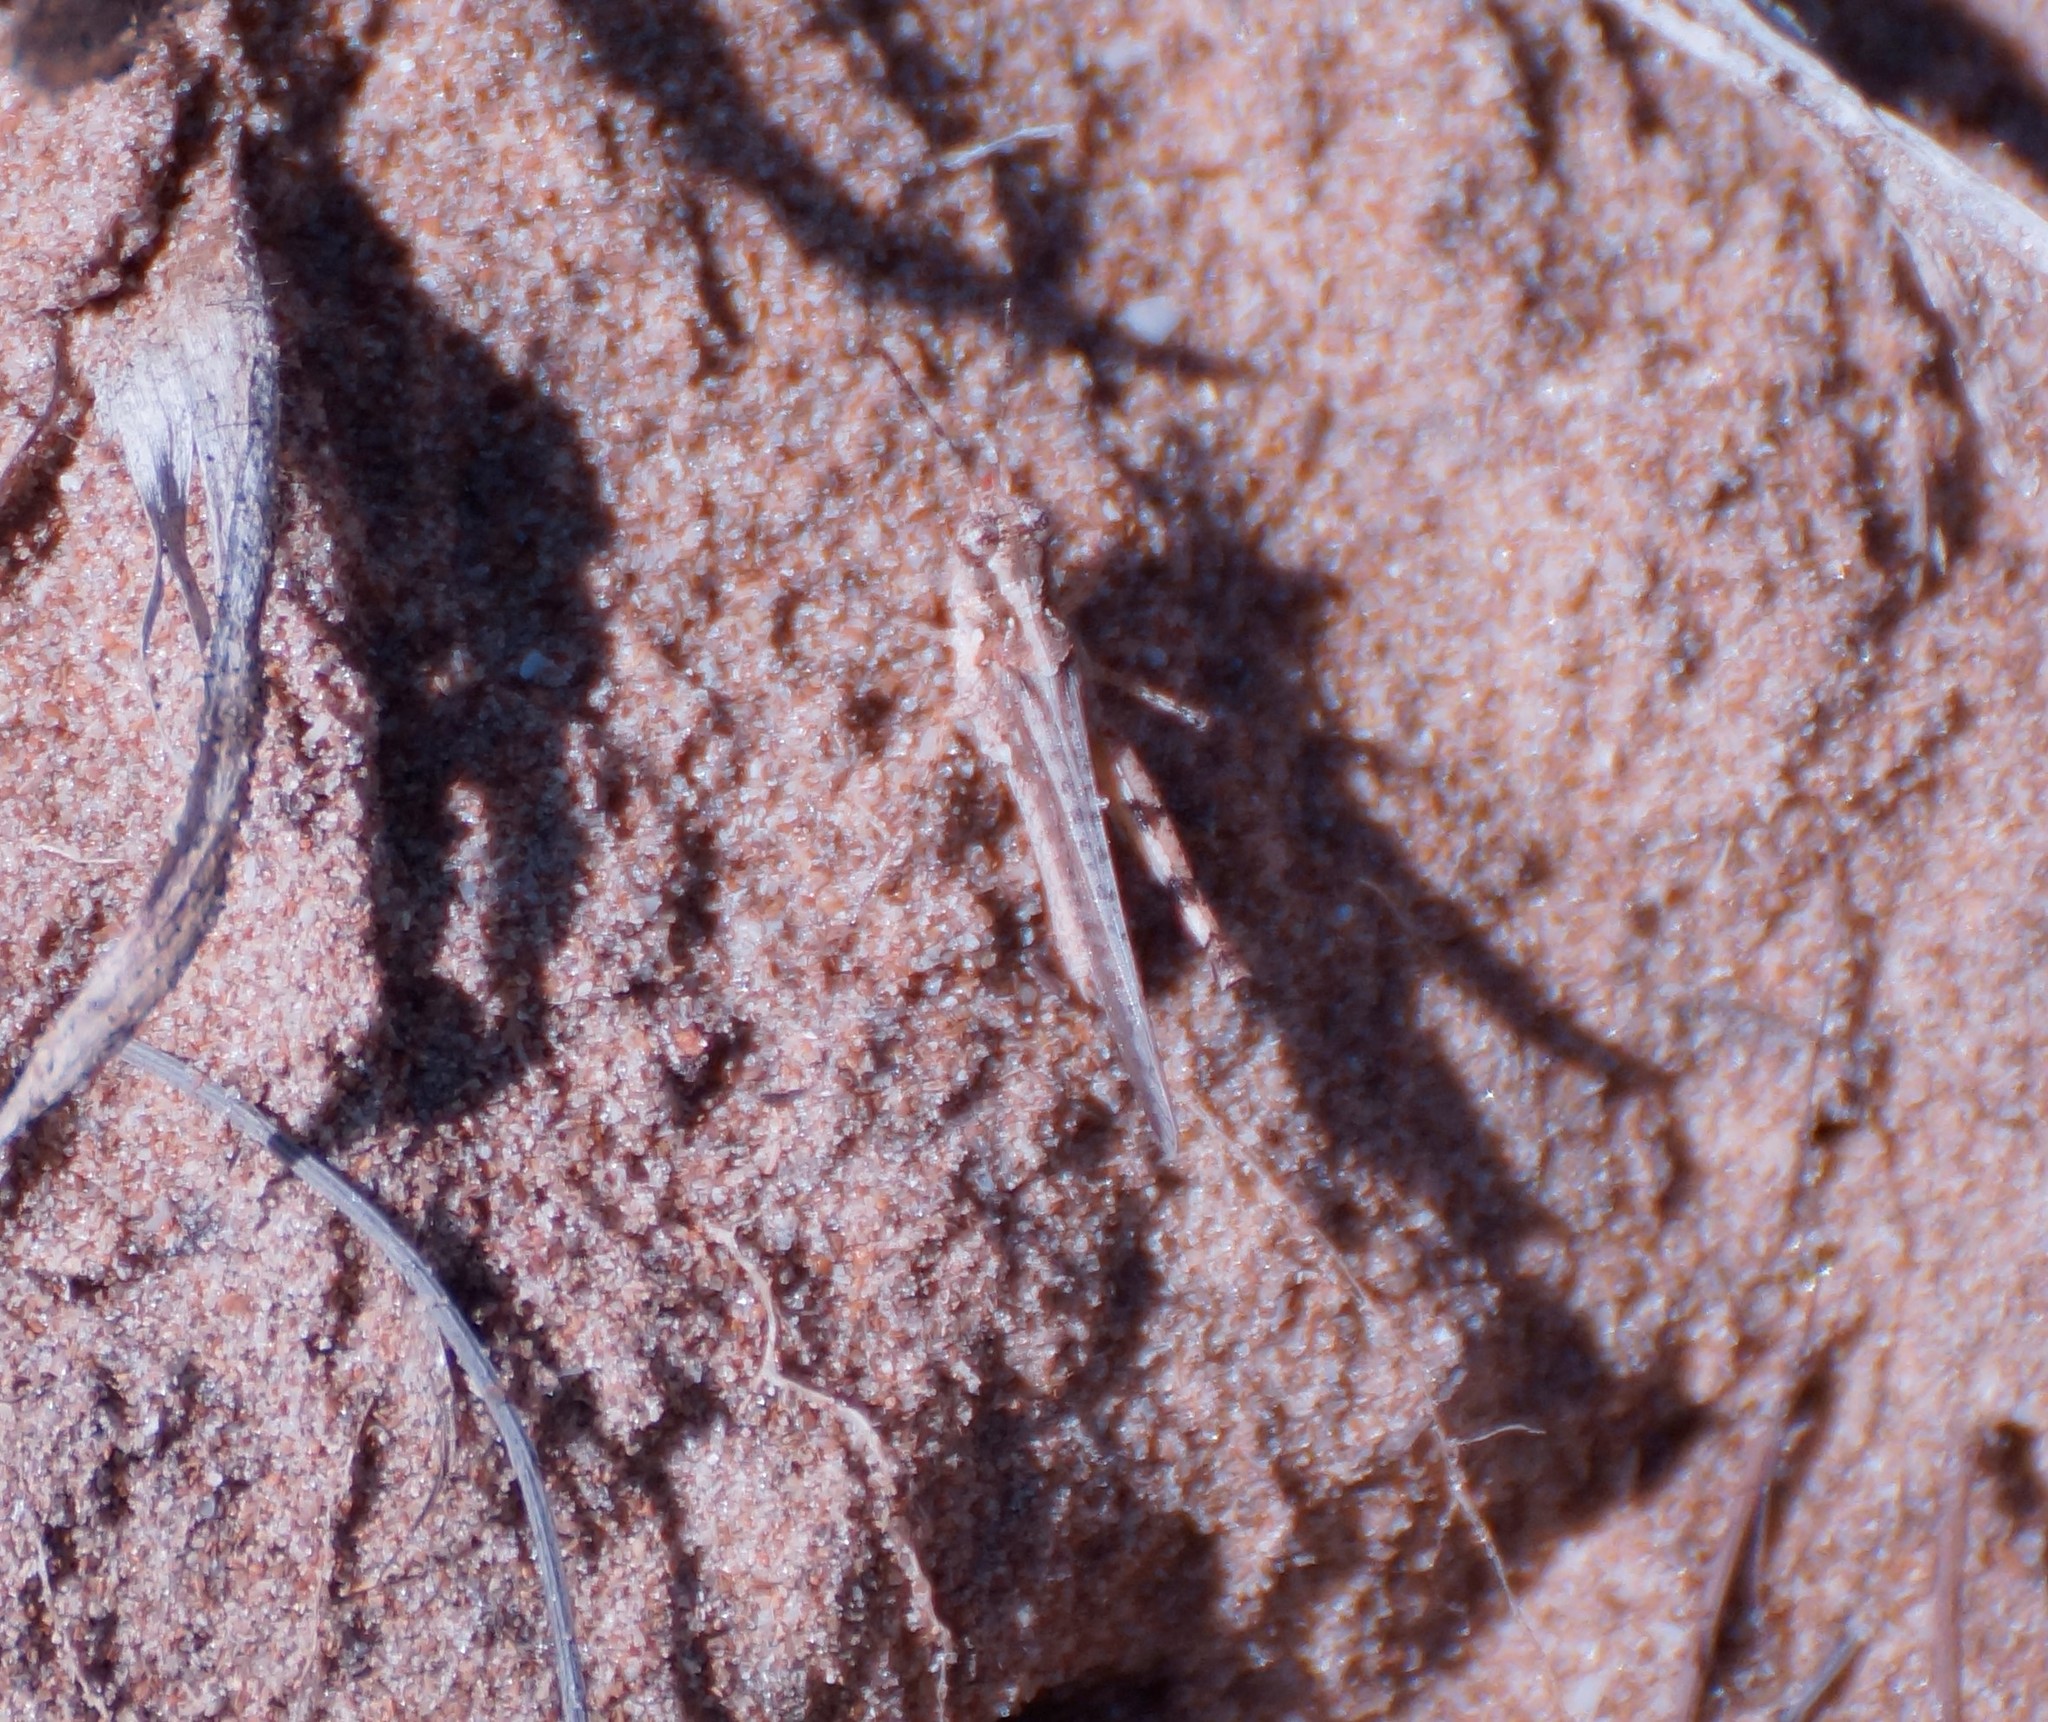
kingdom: Animalia
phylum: Arthropoda
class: Insecta
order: Orthoptera
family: Acrididae
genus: Pycnostictus
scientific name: Pycnostictus seriatus
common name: Common bandwing
